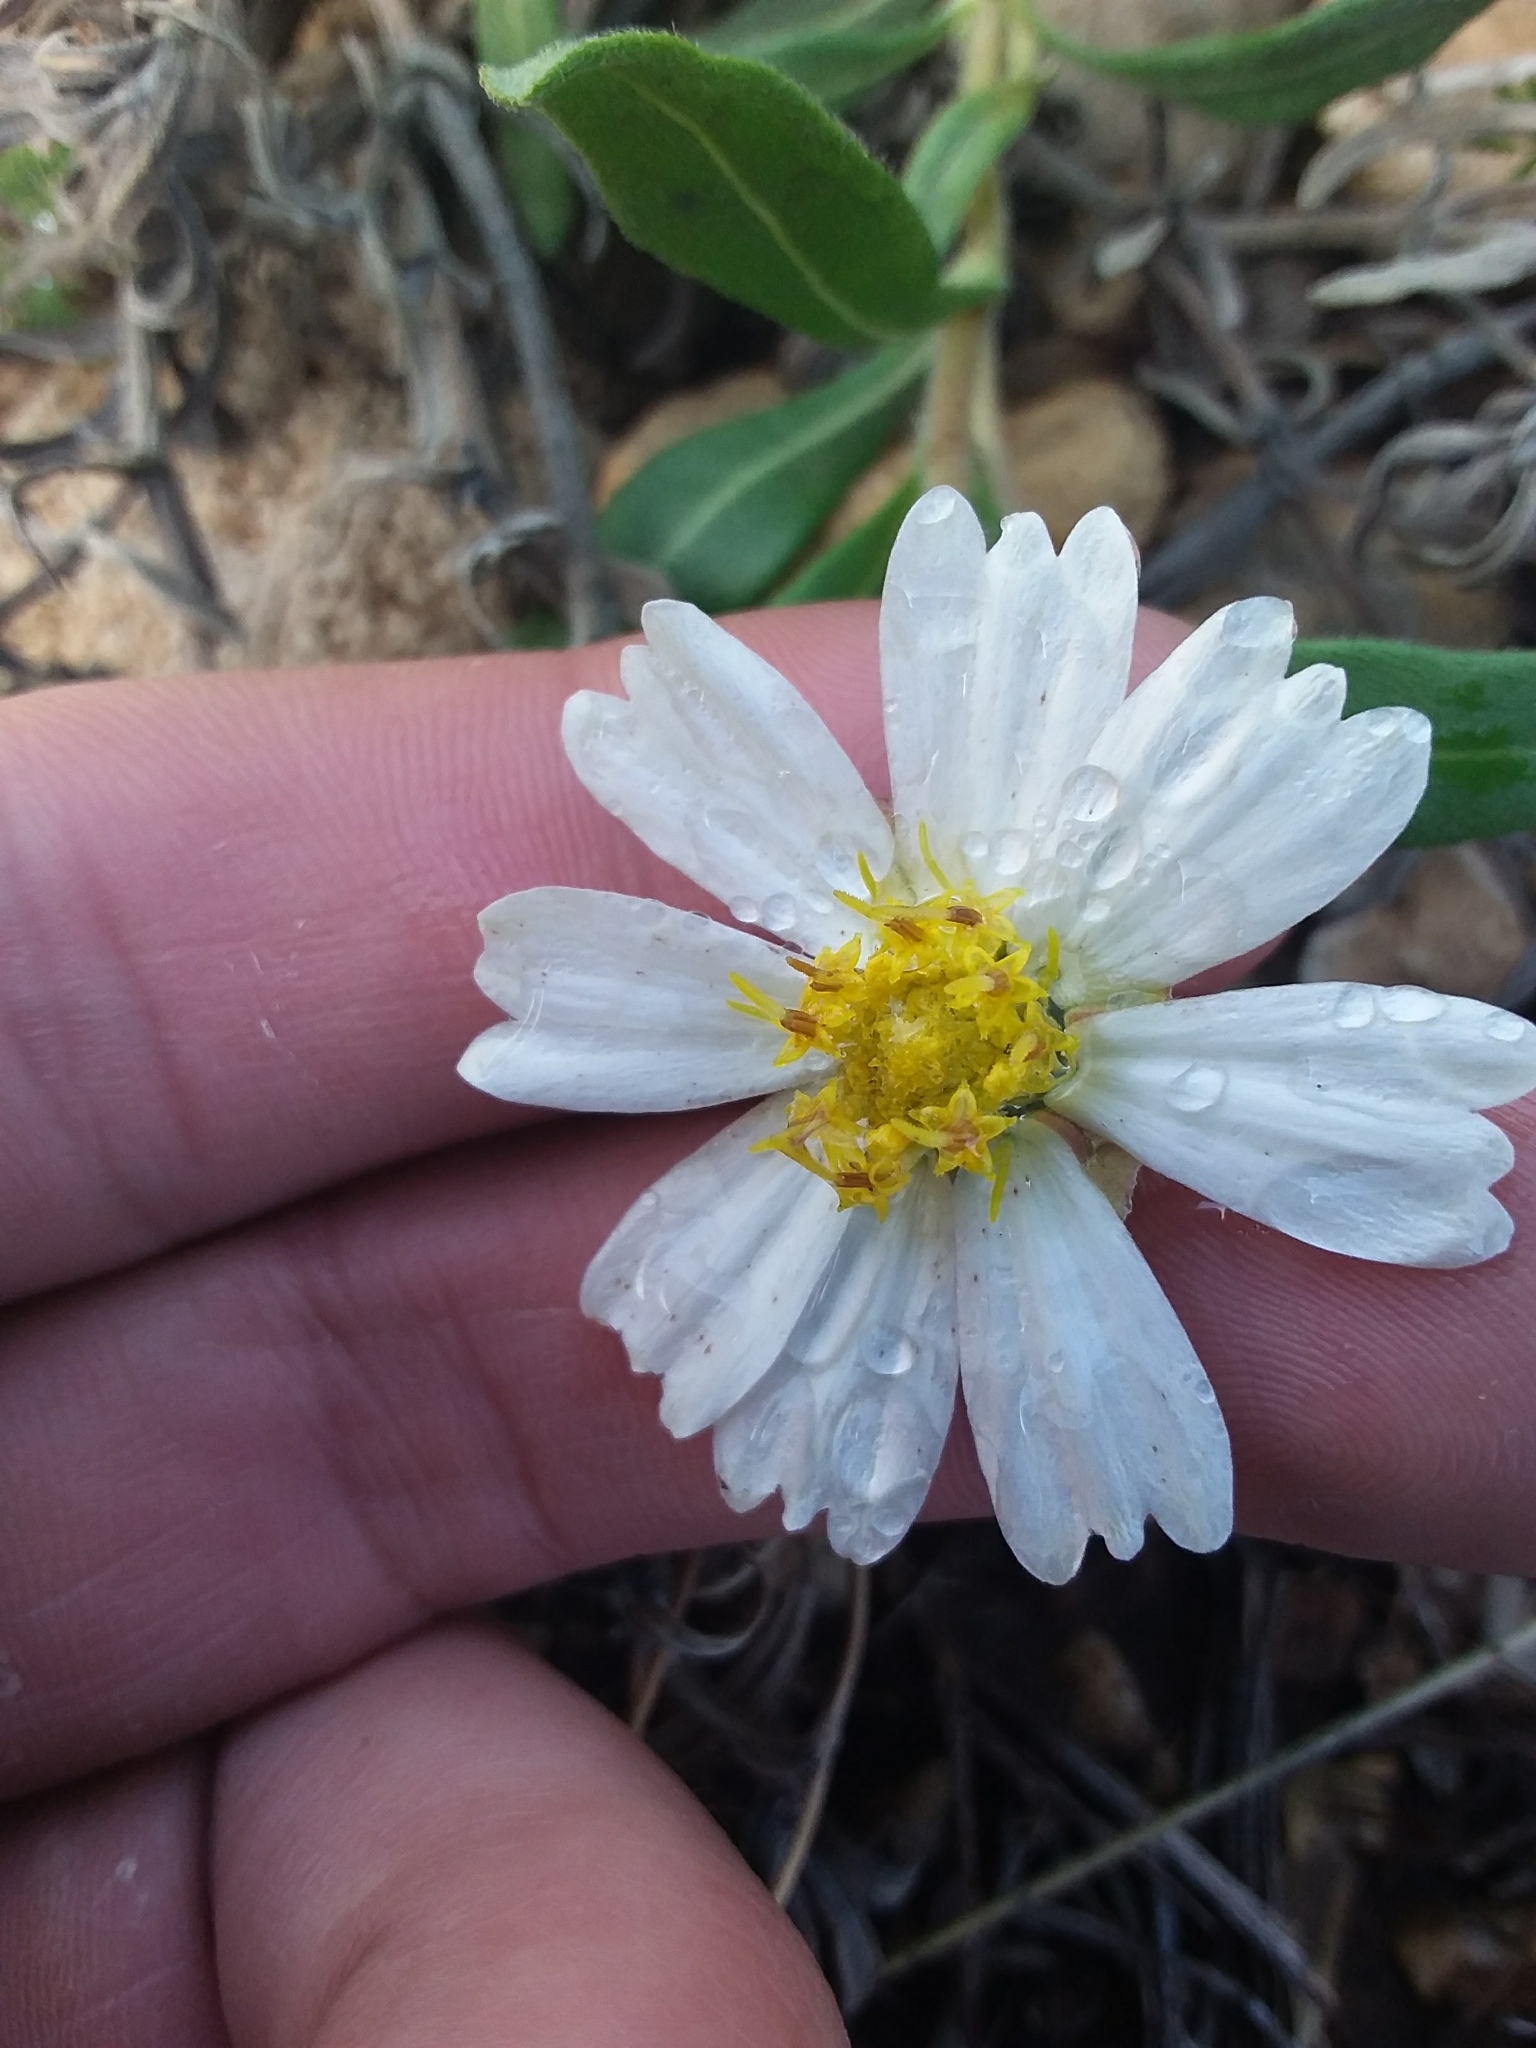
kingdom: Plantae
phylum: Tracheophyta
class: Magnoliopsida
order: Asterales
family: Asteraceae
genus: Melampodium
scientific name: Melampodium leucanthum
